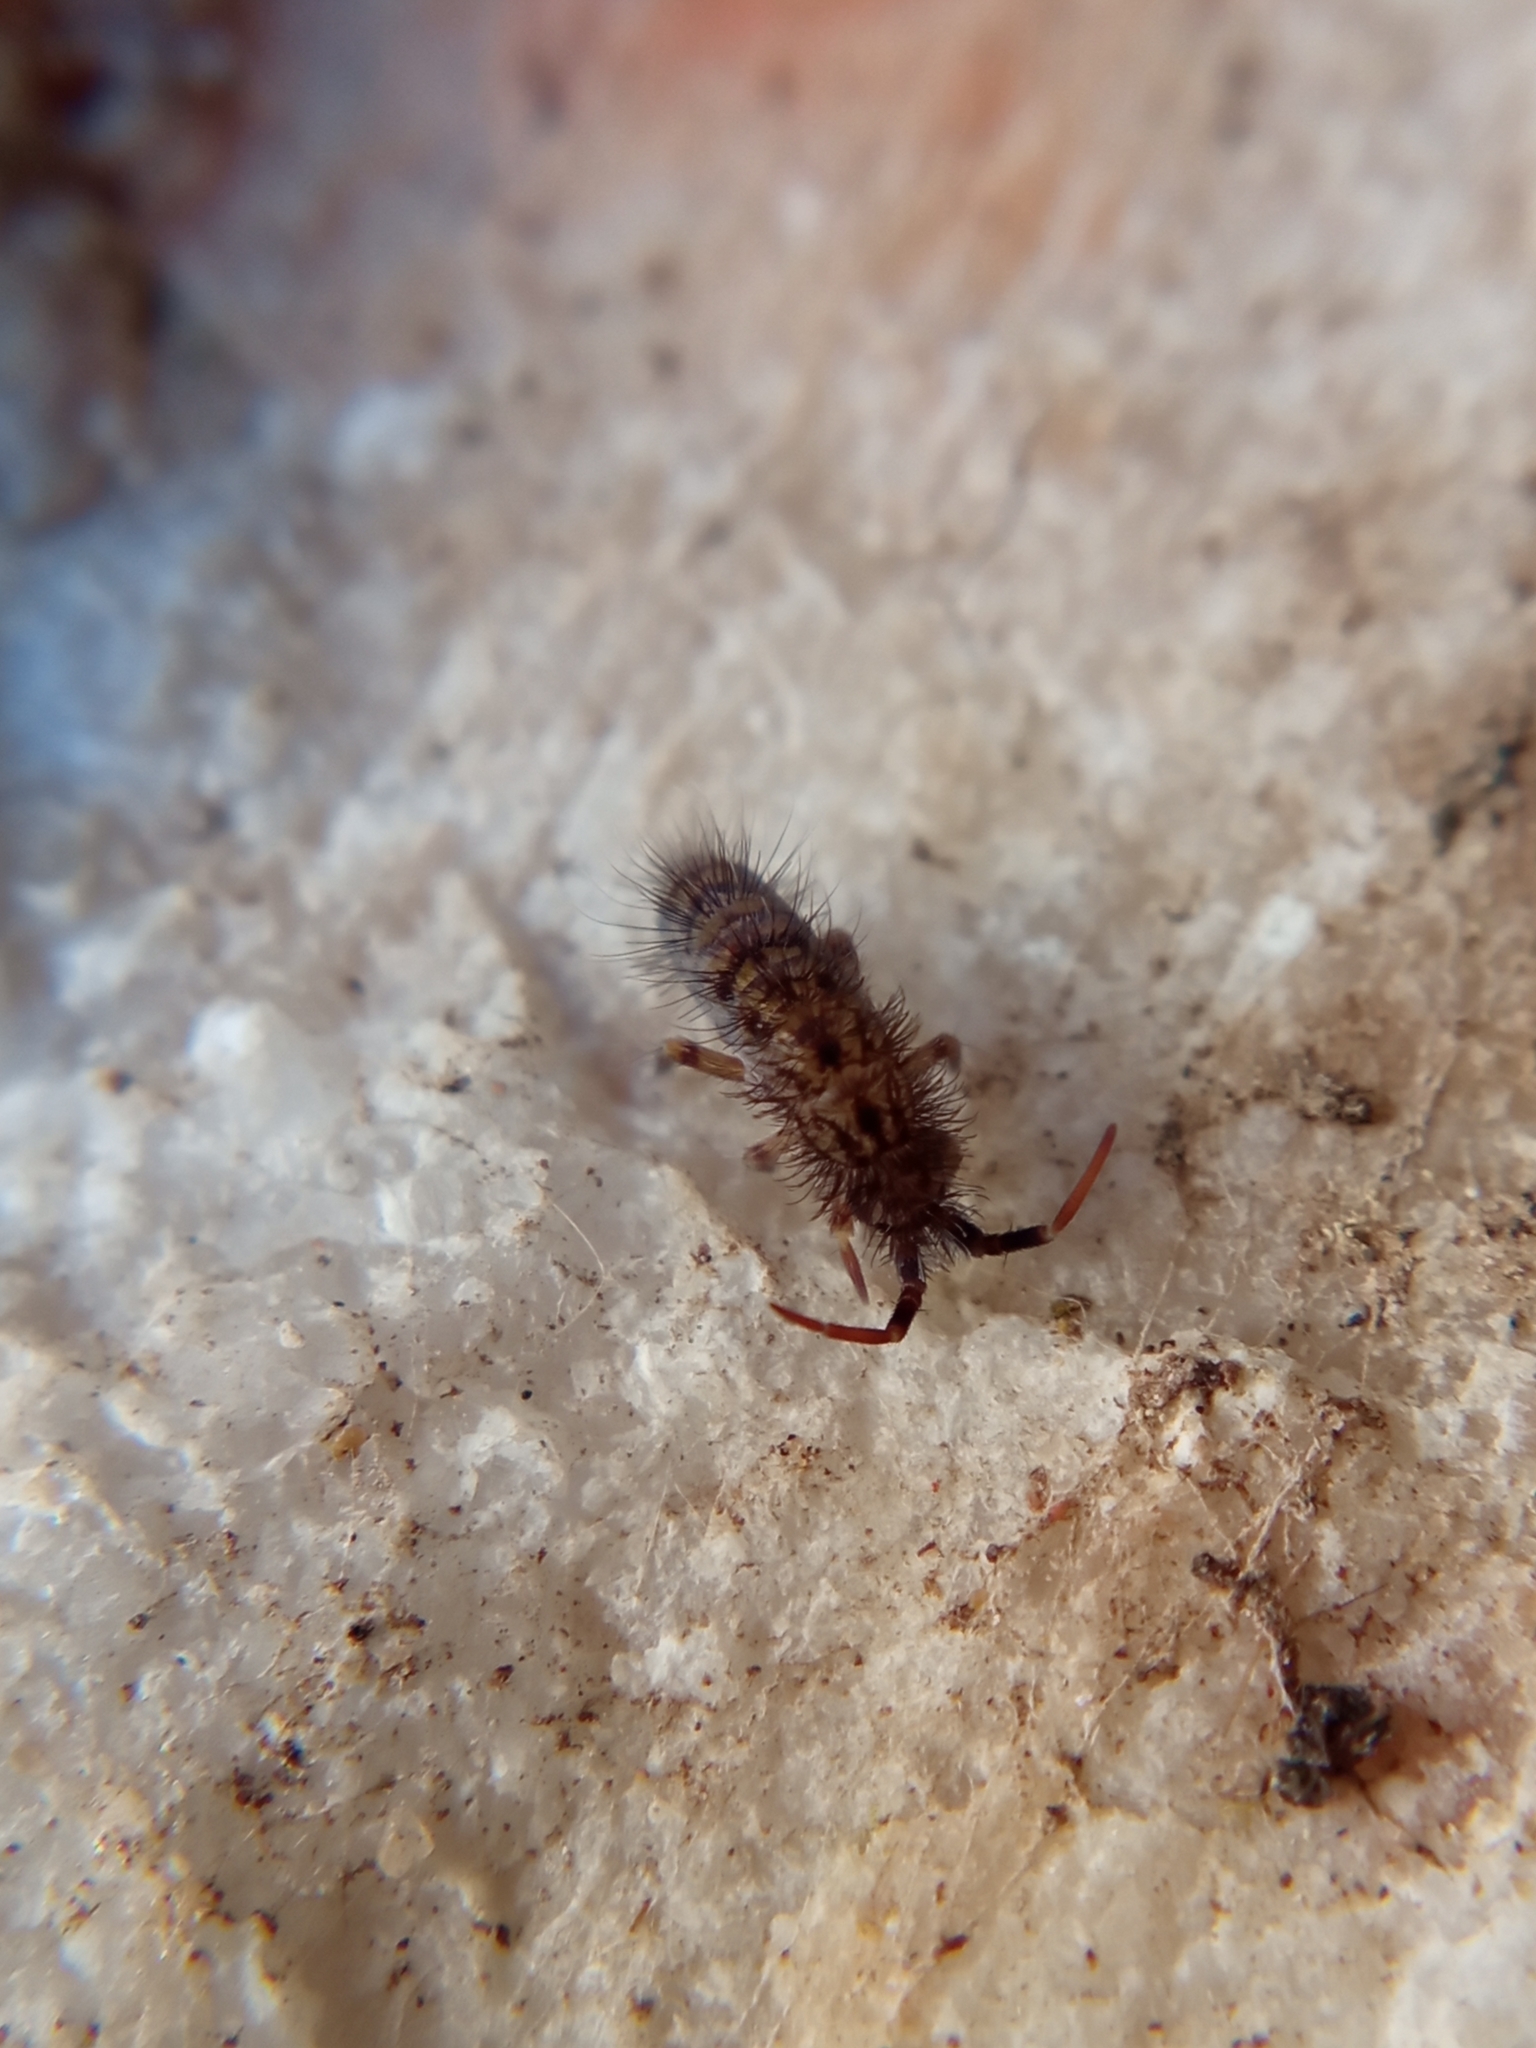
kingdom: Animalia
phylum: Arthropoda
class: Collembola
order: Entomobryomorpha
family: Orchesellidae
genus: Orchesella
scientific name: Orchesella villosa
